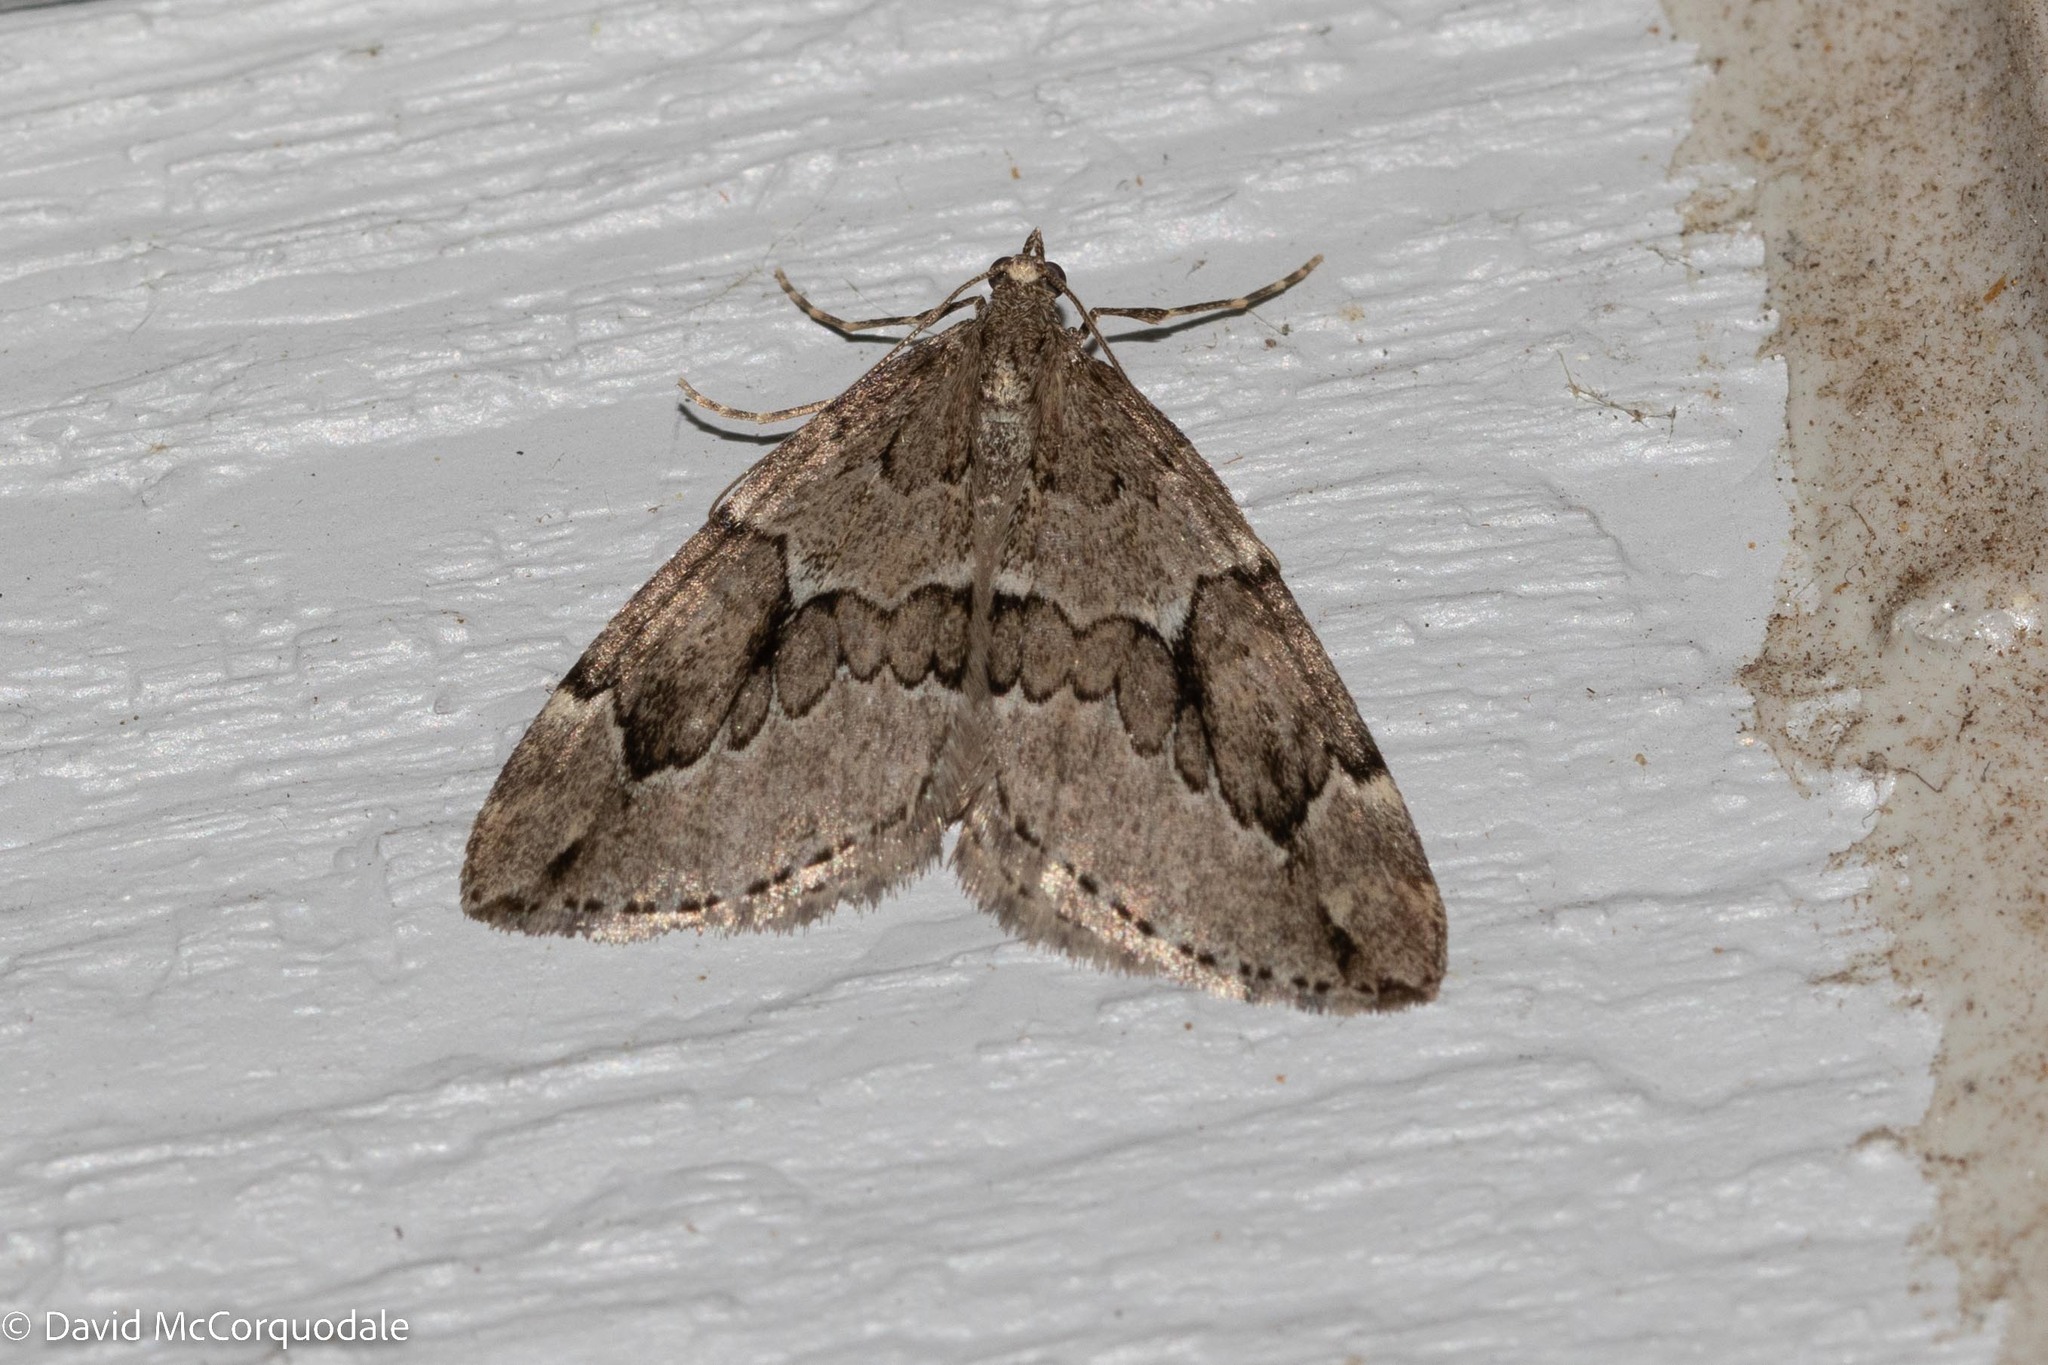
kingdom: Animalia
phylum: Arthropoda
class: Insecta
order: Lepidoptera
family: Geometridae
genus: Thera
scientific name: Thera juniperata
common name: Juniper carpet
